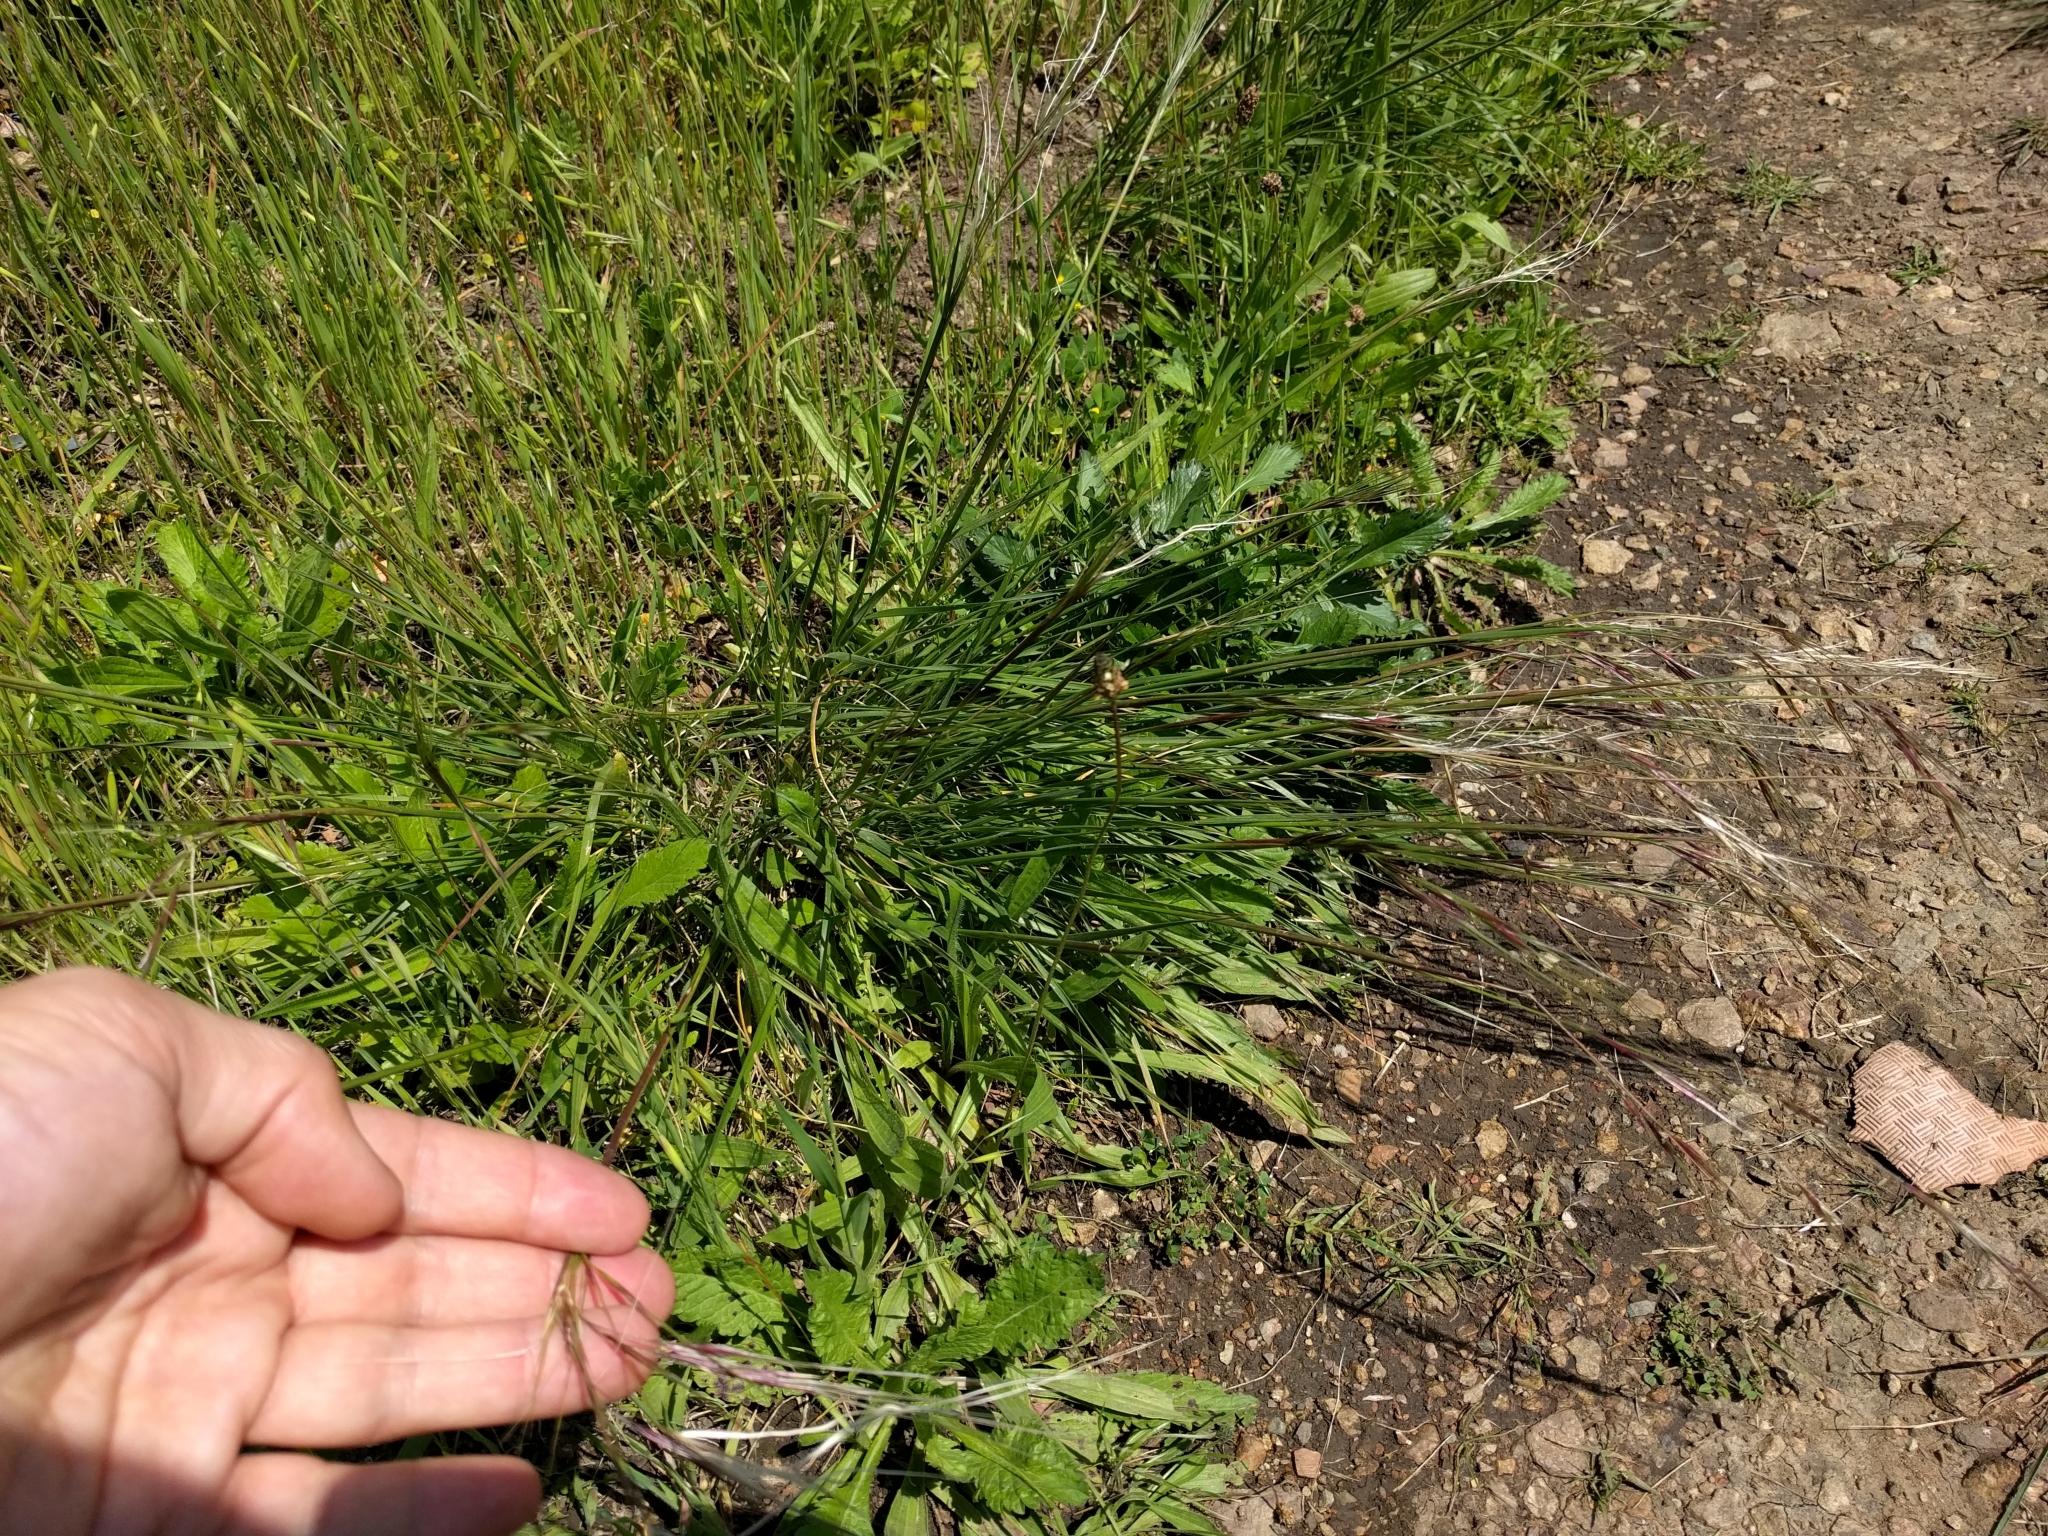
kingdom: Plantae
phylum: Tracheophyta
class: Liliopsida
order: Poales
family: Poaceae
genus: Nassella
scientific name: Nassella pulchra
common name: Purple needlegrass
